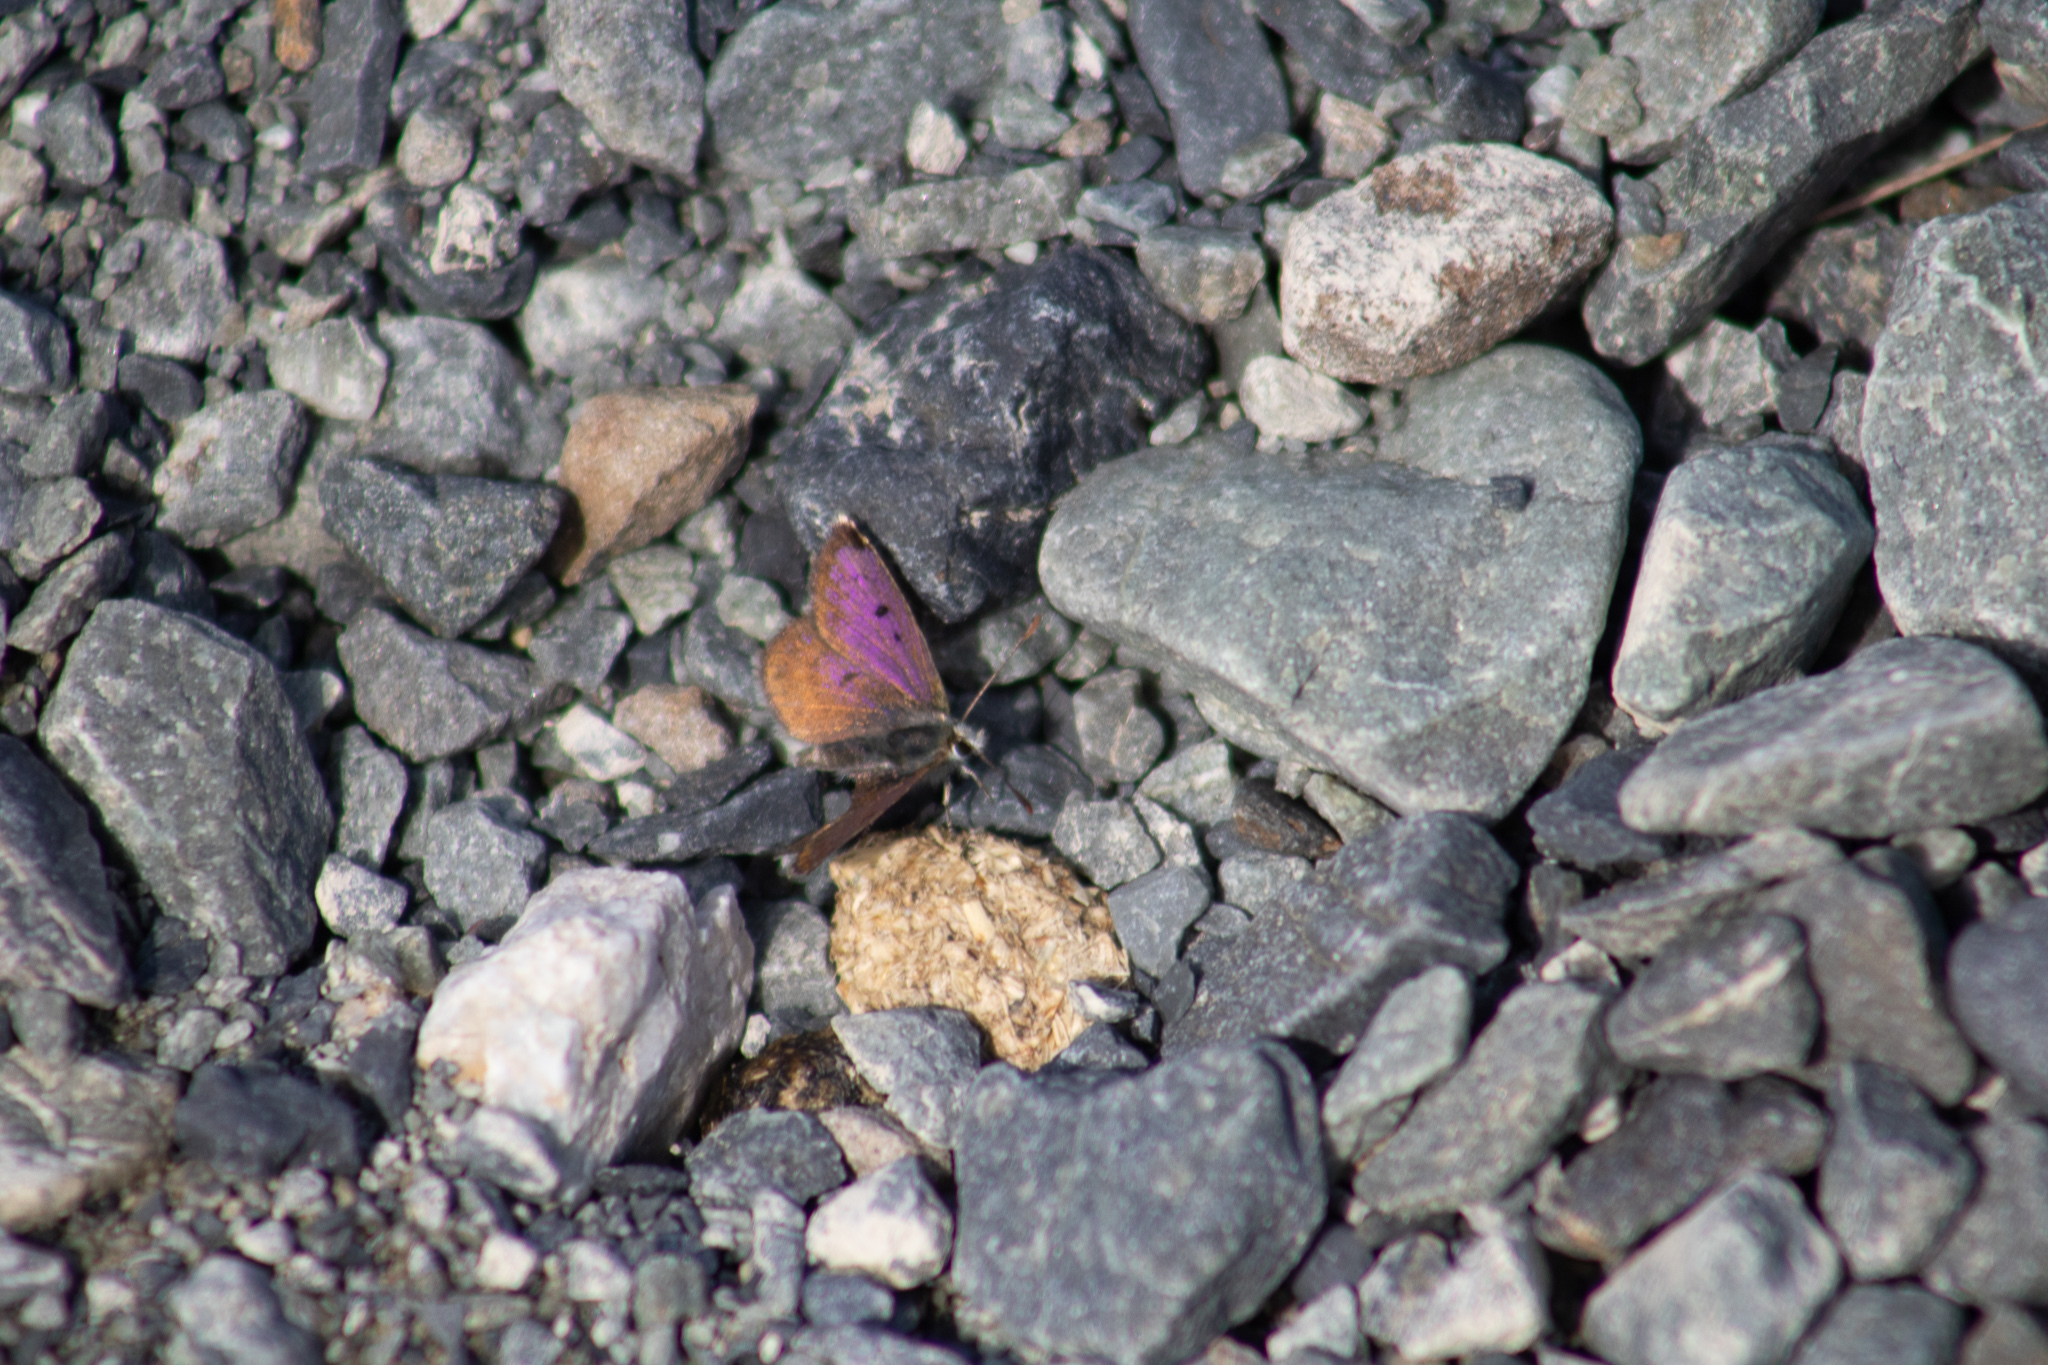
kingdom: Animalia
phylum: Arthropoda
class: Insecta
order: Lepidoptera
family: Lycaenidae
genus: Lycaena
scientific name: Lycaena
